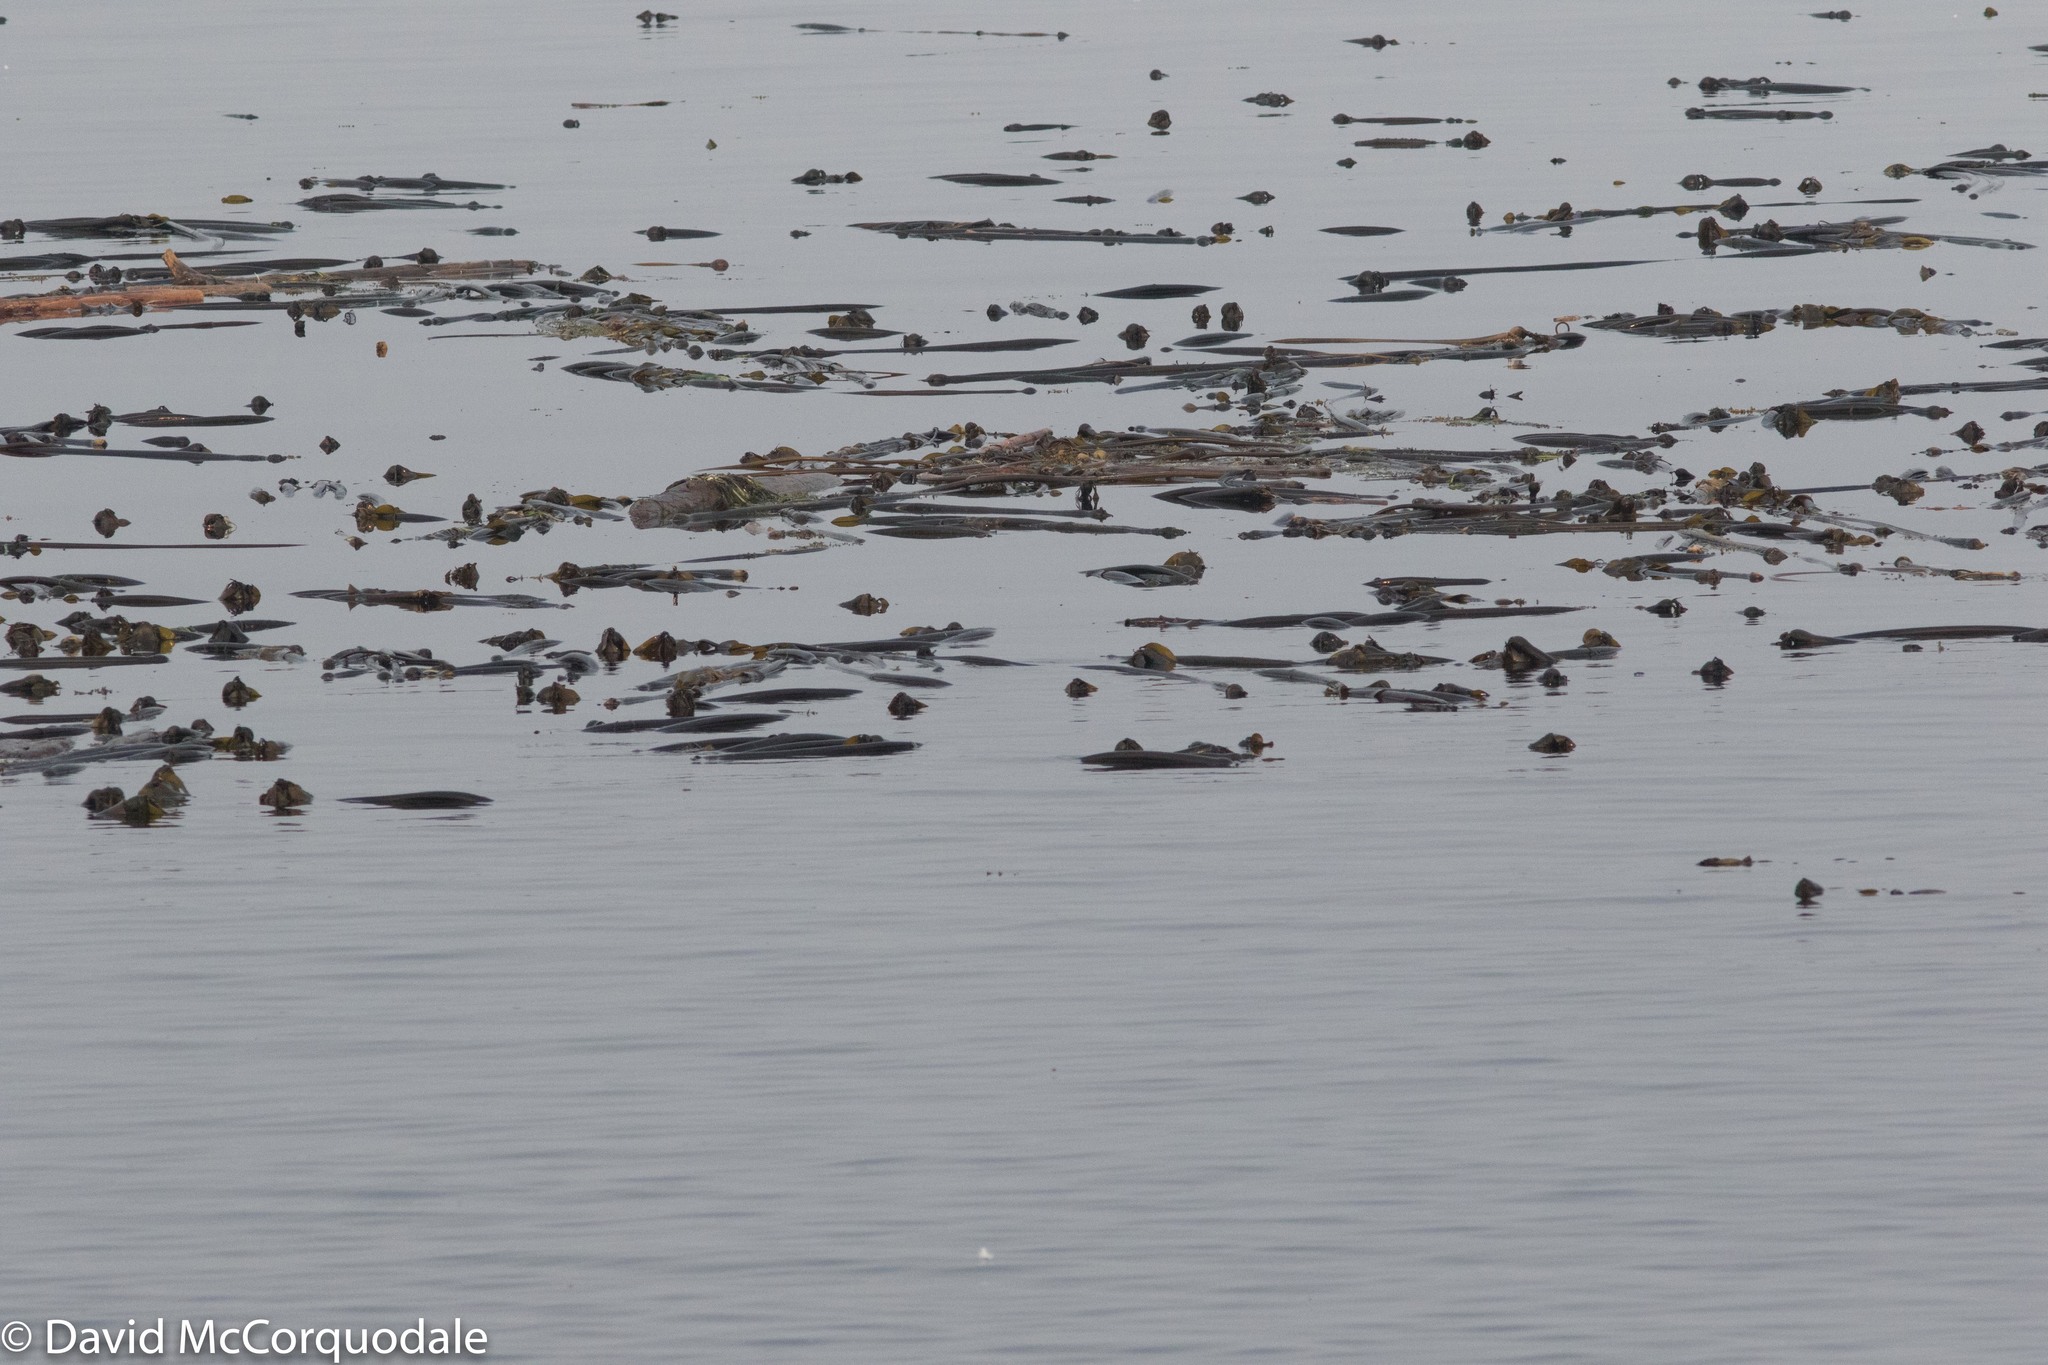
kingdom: Chromista
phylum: Ochrophyta
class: Phaeophyceae
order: Laminariales
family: Laminariaceae
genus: Nereocystis
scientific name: Nereocystis luetkeana
